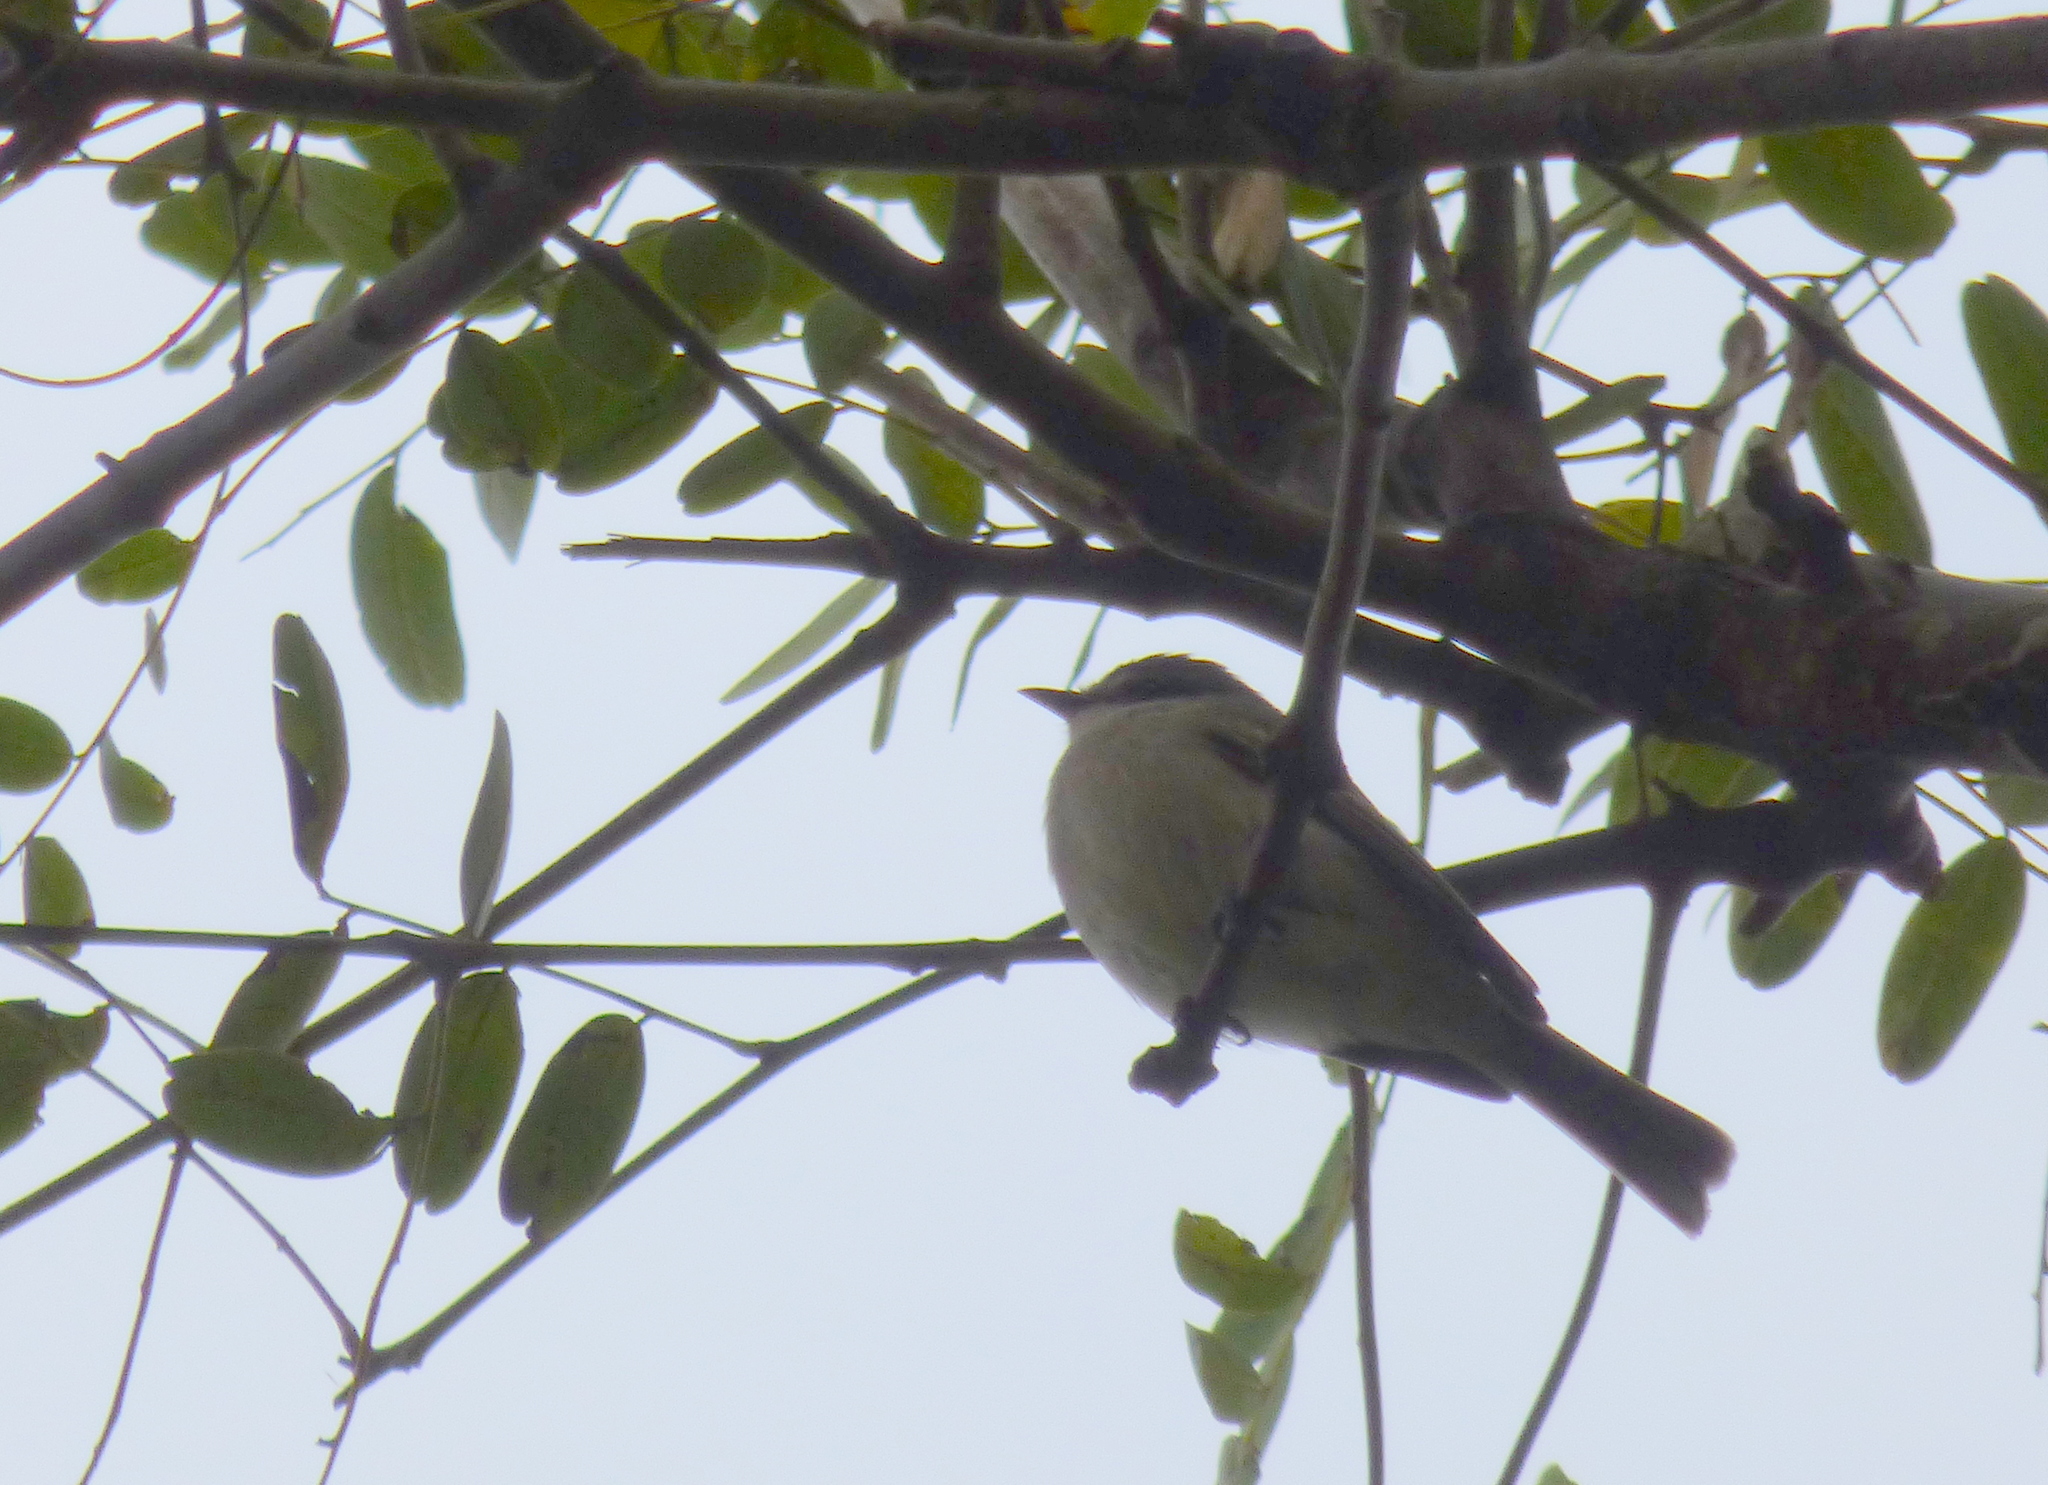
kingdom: Animalia
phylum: Chordata
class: Aves
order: Passeriformes
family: Tyrannidae
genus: Suiriri
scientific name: Suiriri suiriri
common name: Suiriri flycatcher
